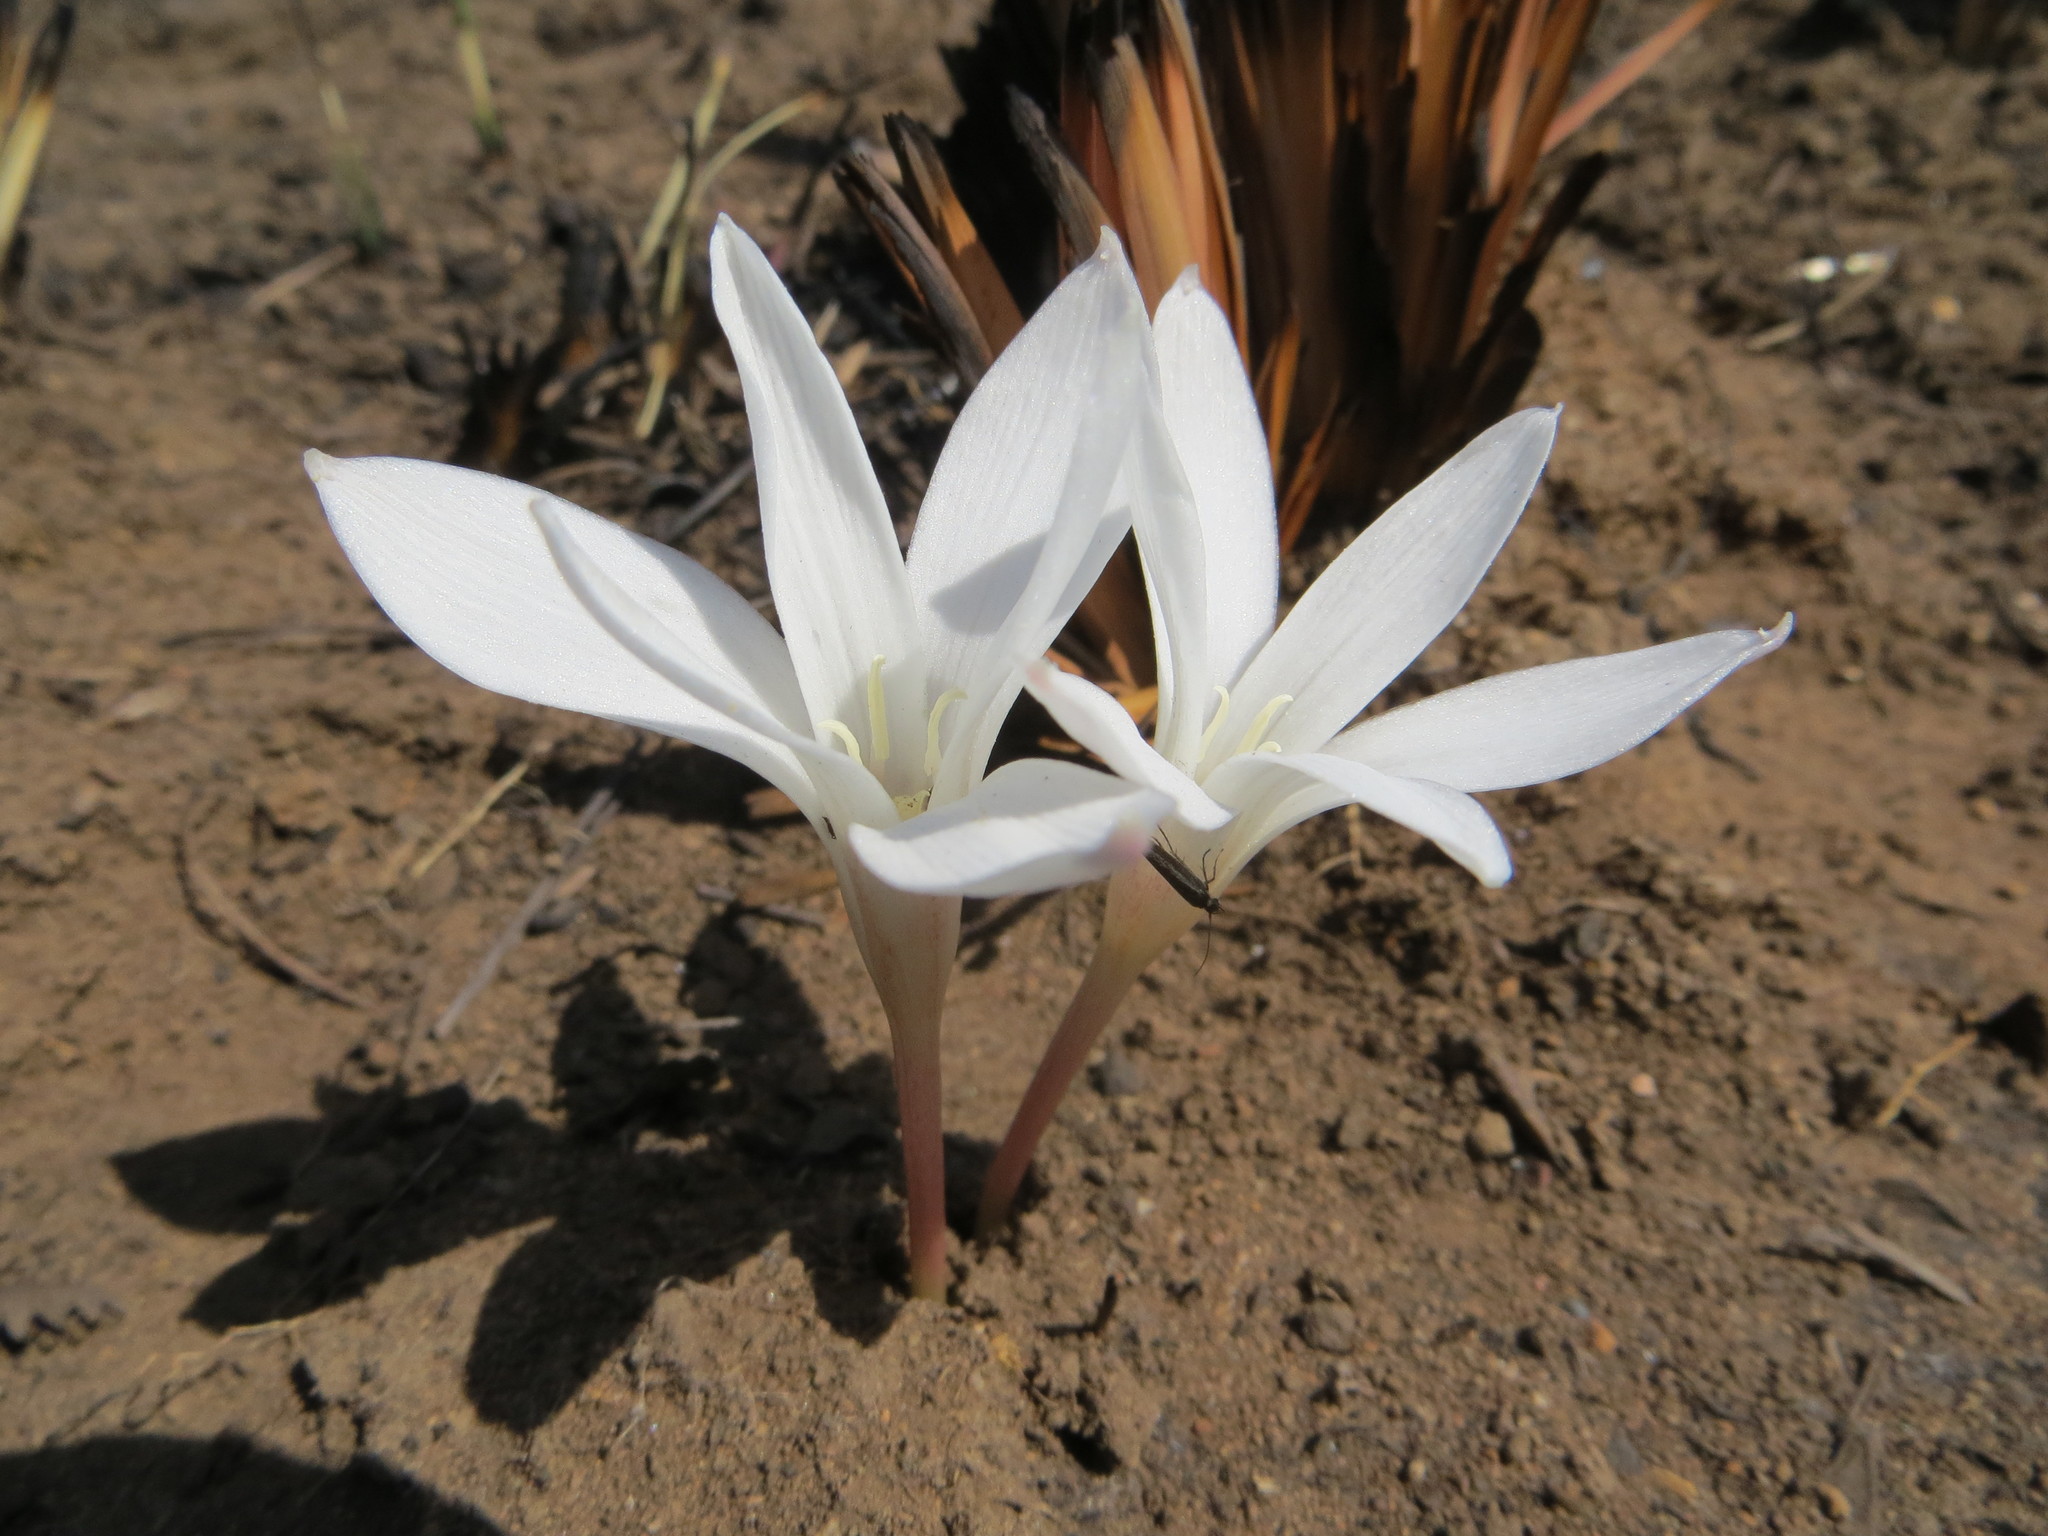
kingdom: Plantae
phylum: Tracheophyta
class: Liliopsida
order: Asparagales
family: Amaryllidaceae
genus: Apodolirion
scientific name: Apodolirion buchananii
